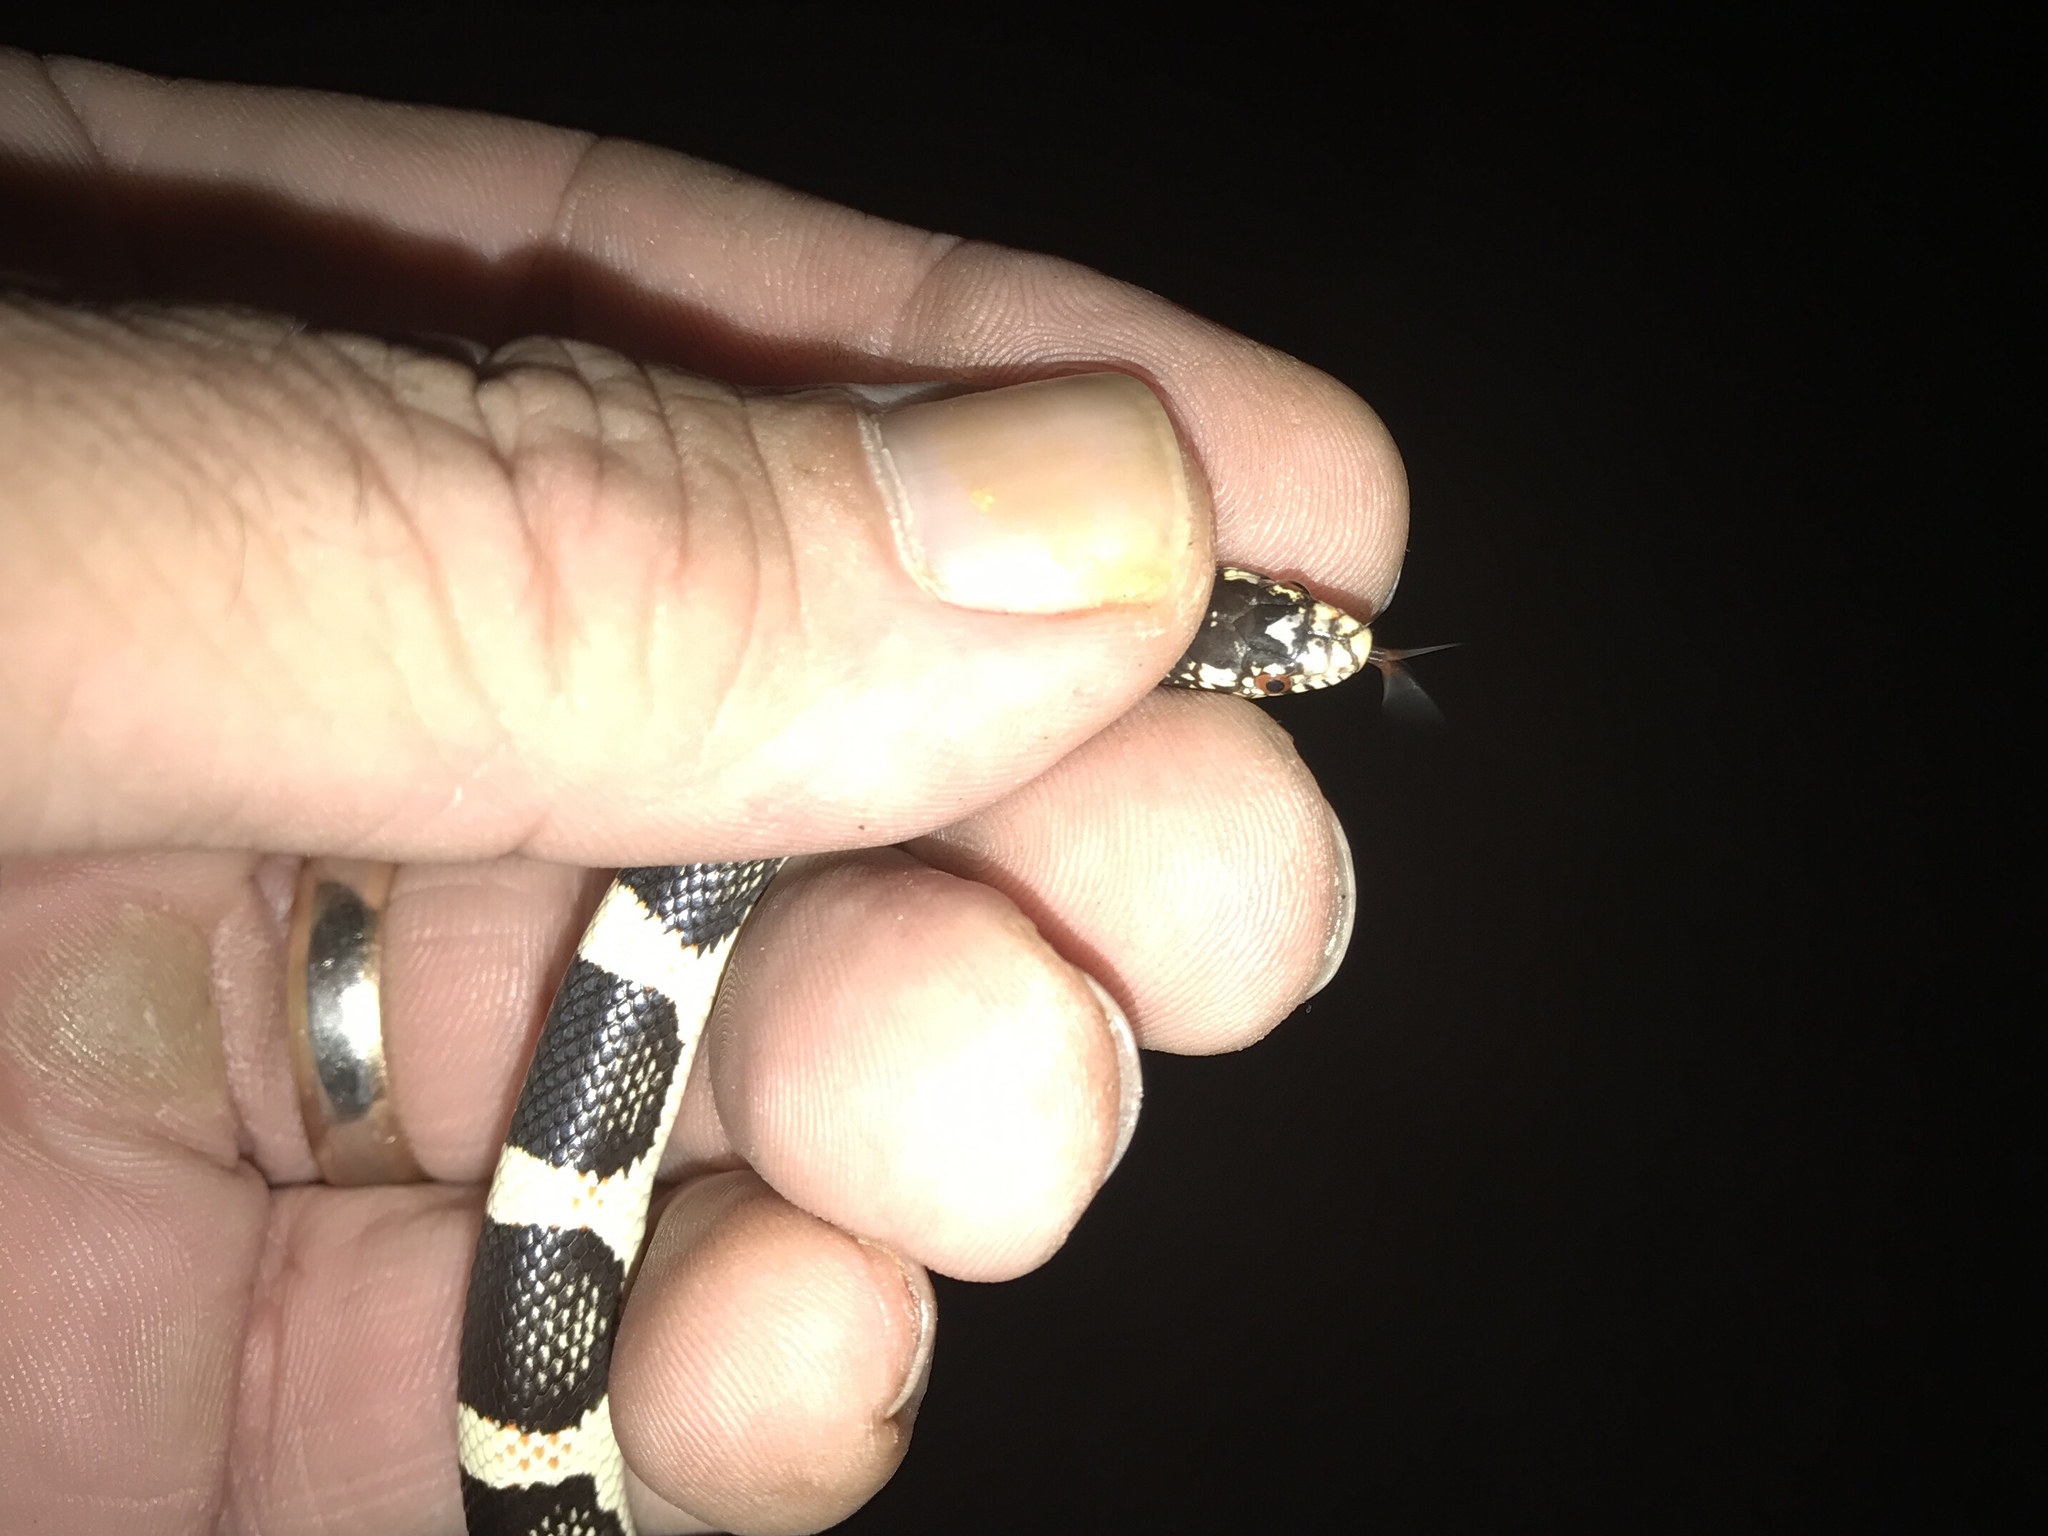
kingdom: Animalia
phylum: Chordata
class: Squamata
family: Colubridae
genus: Rhinocheilus
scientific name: Rhinocheilus lecontei
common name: Longnose snake
